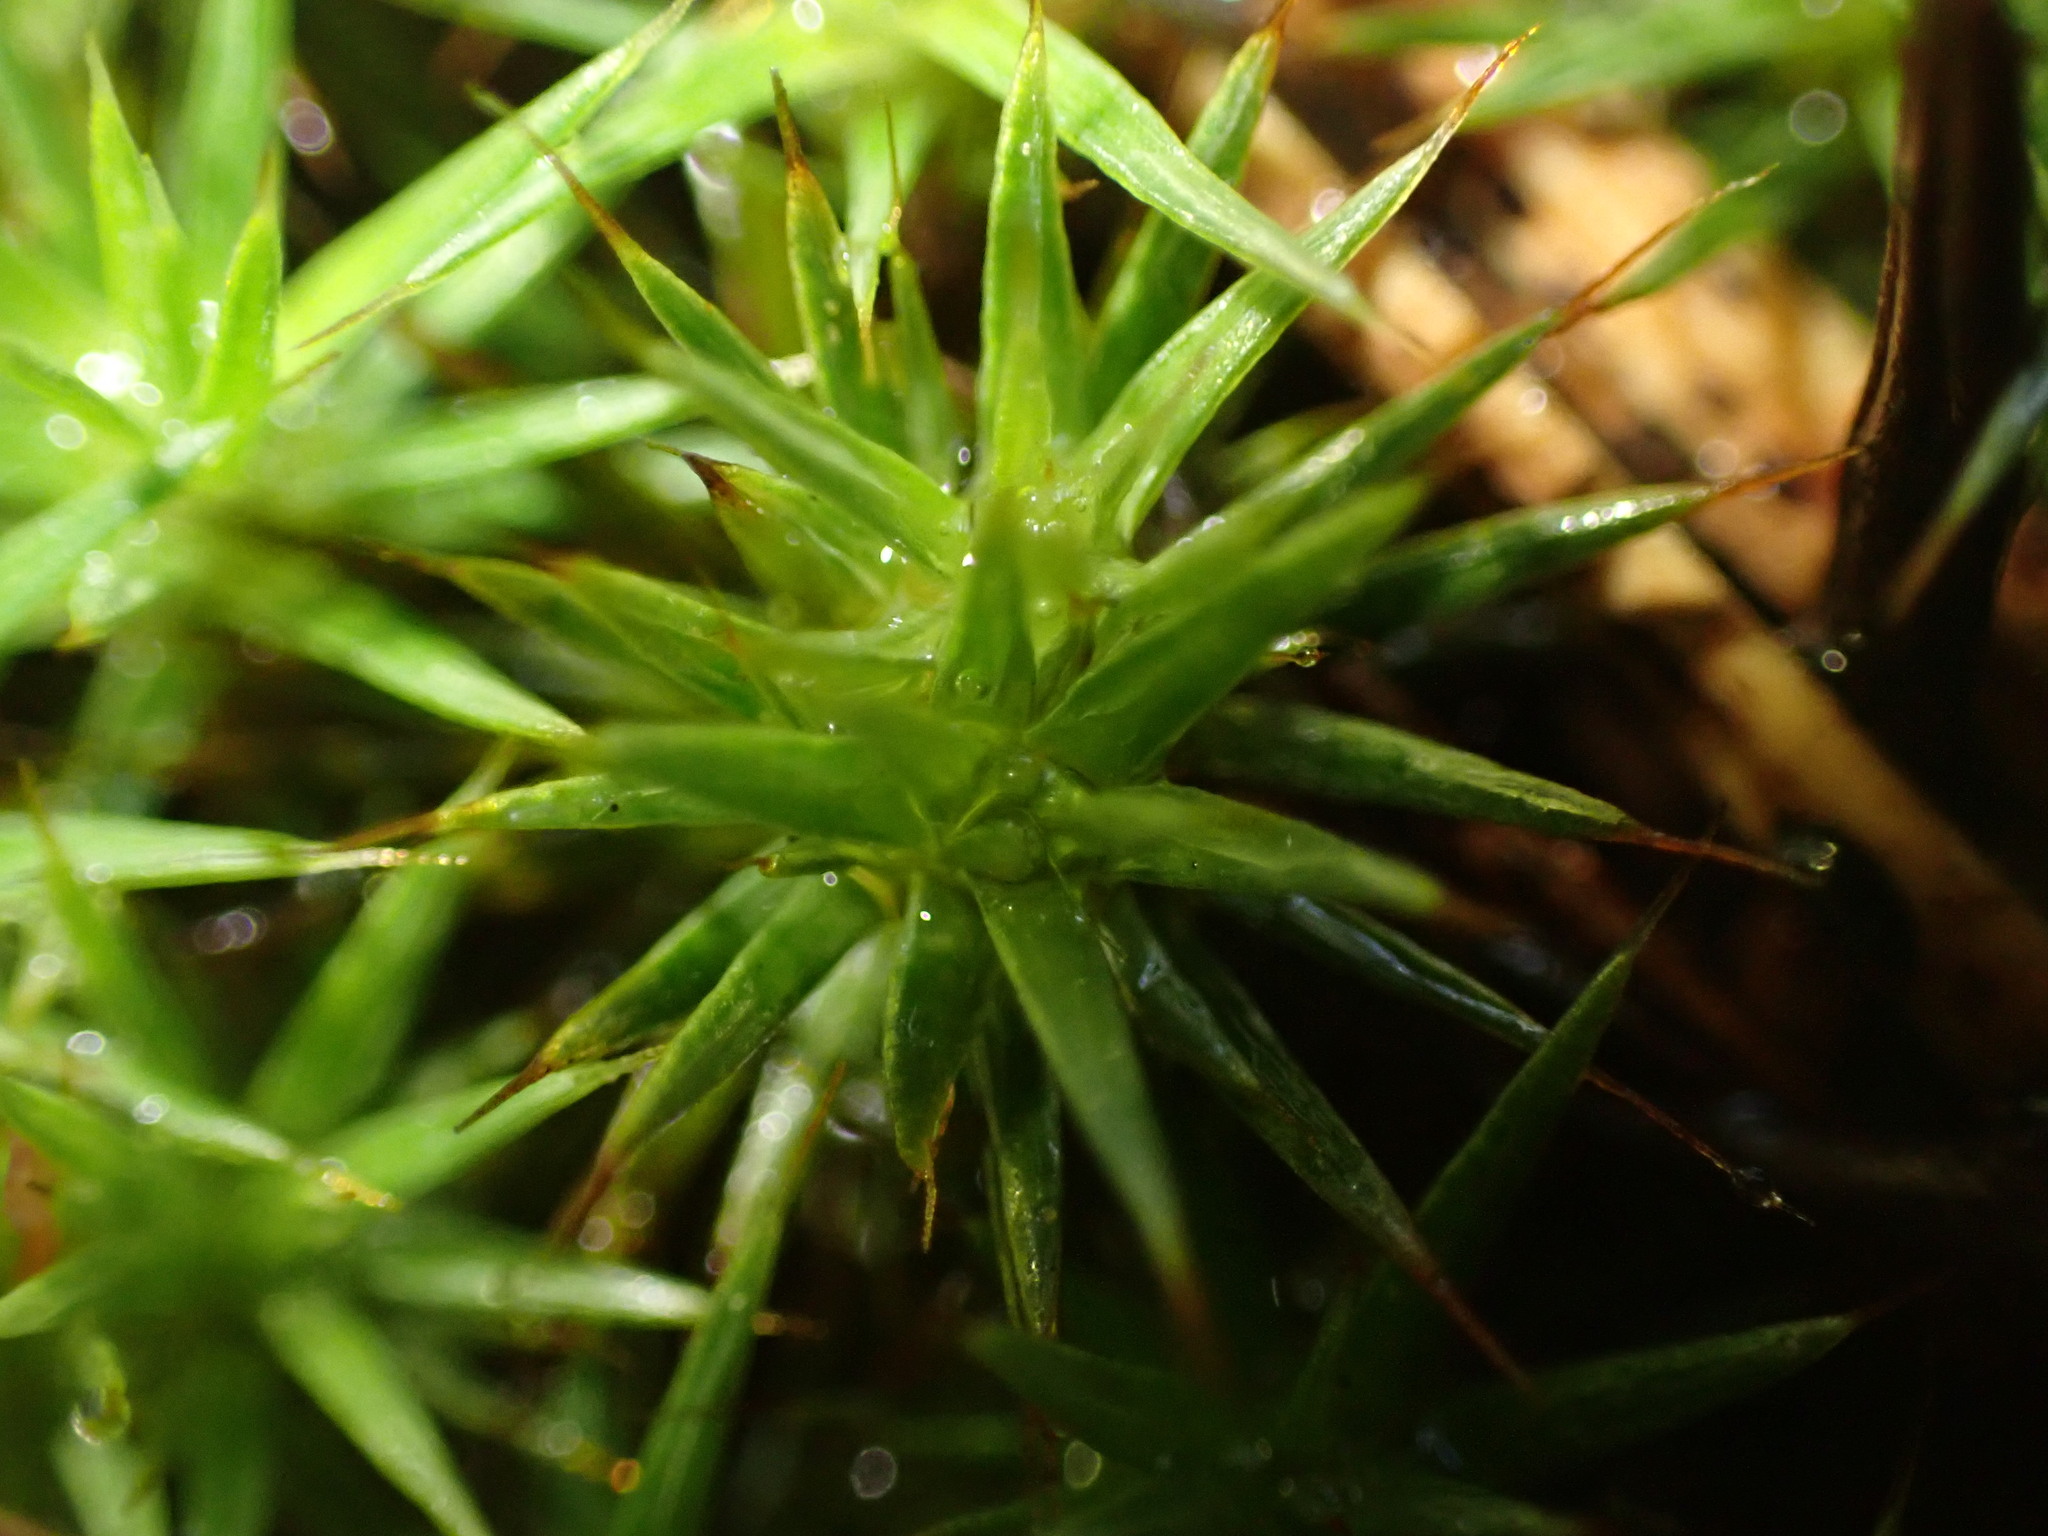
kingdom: Plantae
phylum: Bryophyta
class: Polytrichopsida
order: Polytrichales
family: Polytrichaceae
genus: Polytrichum
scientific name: Polytrichum juniperinum
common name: Juniper haircap moss
